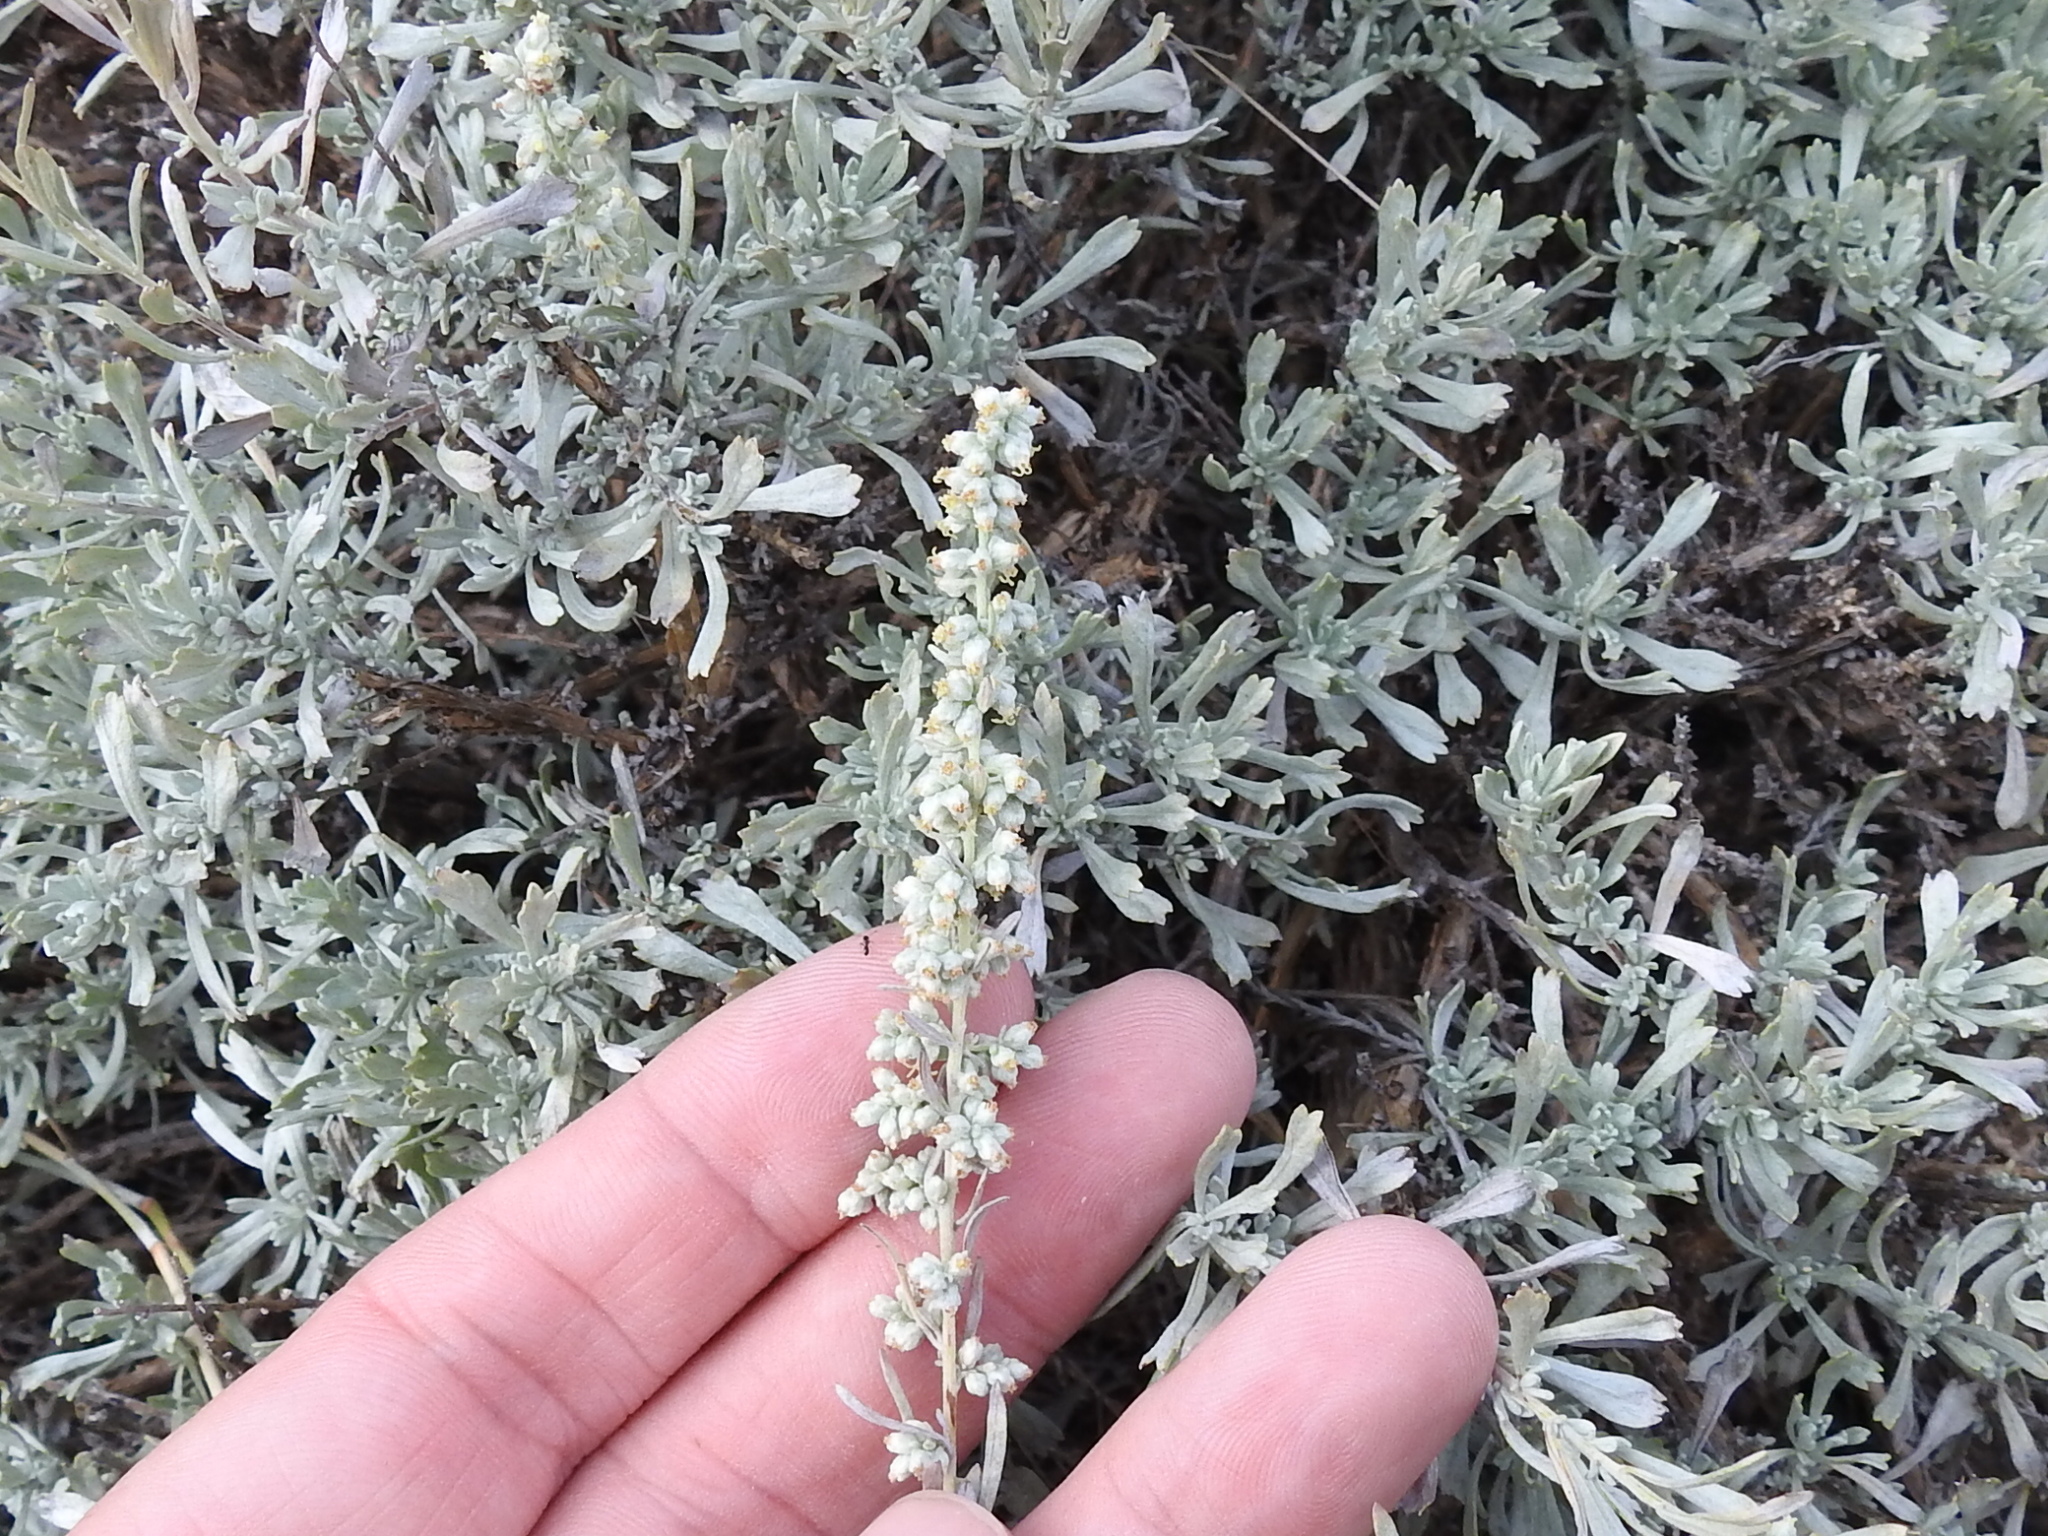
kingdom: Plantae
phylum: Tracheophyta
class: Magnoliopsida
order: Asterales
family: Asteraceae
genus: Artemisia
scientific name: Artemisia ludoviciana
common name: Western mugwort
